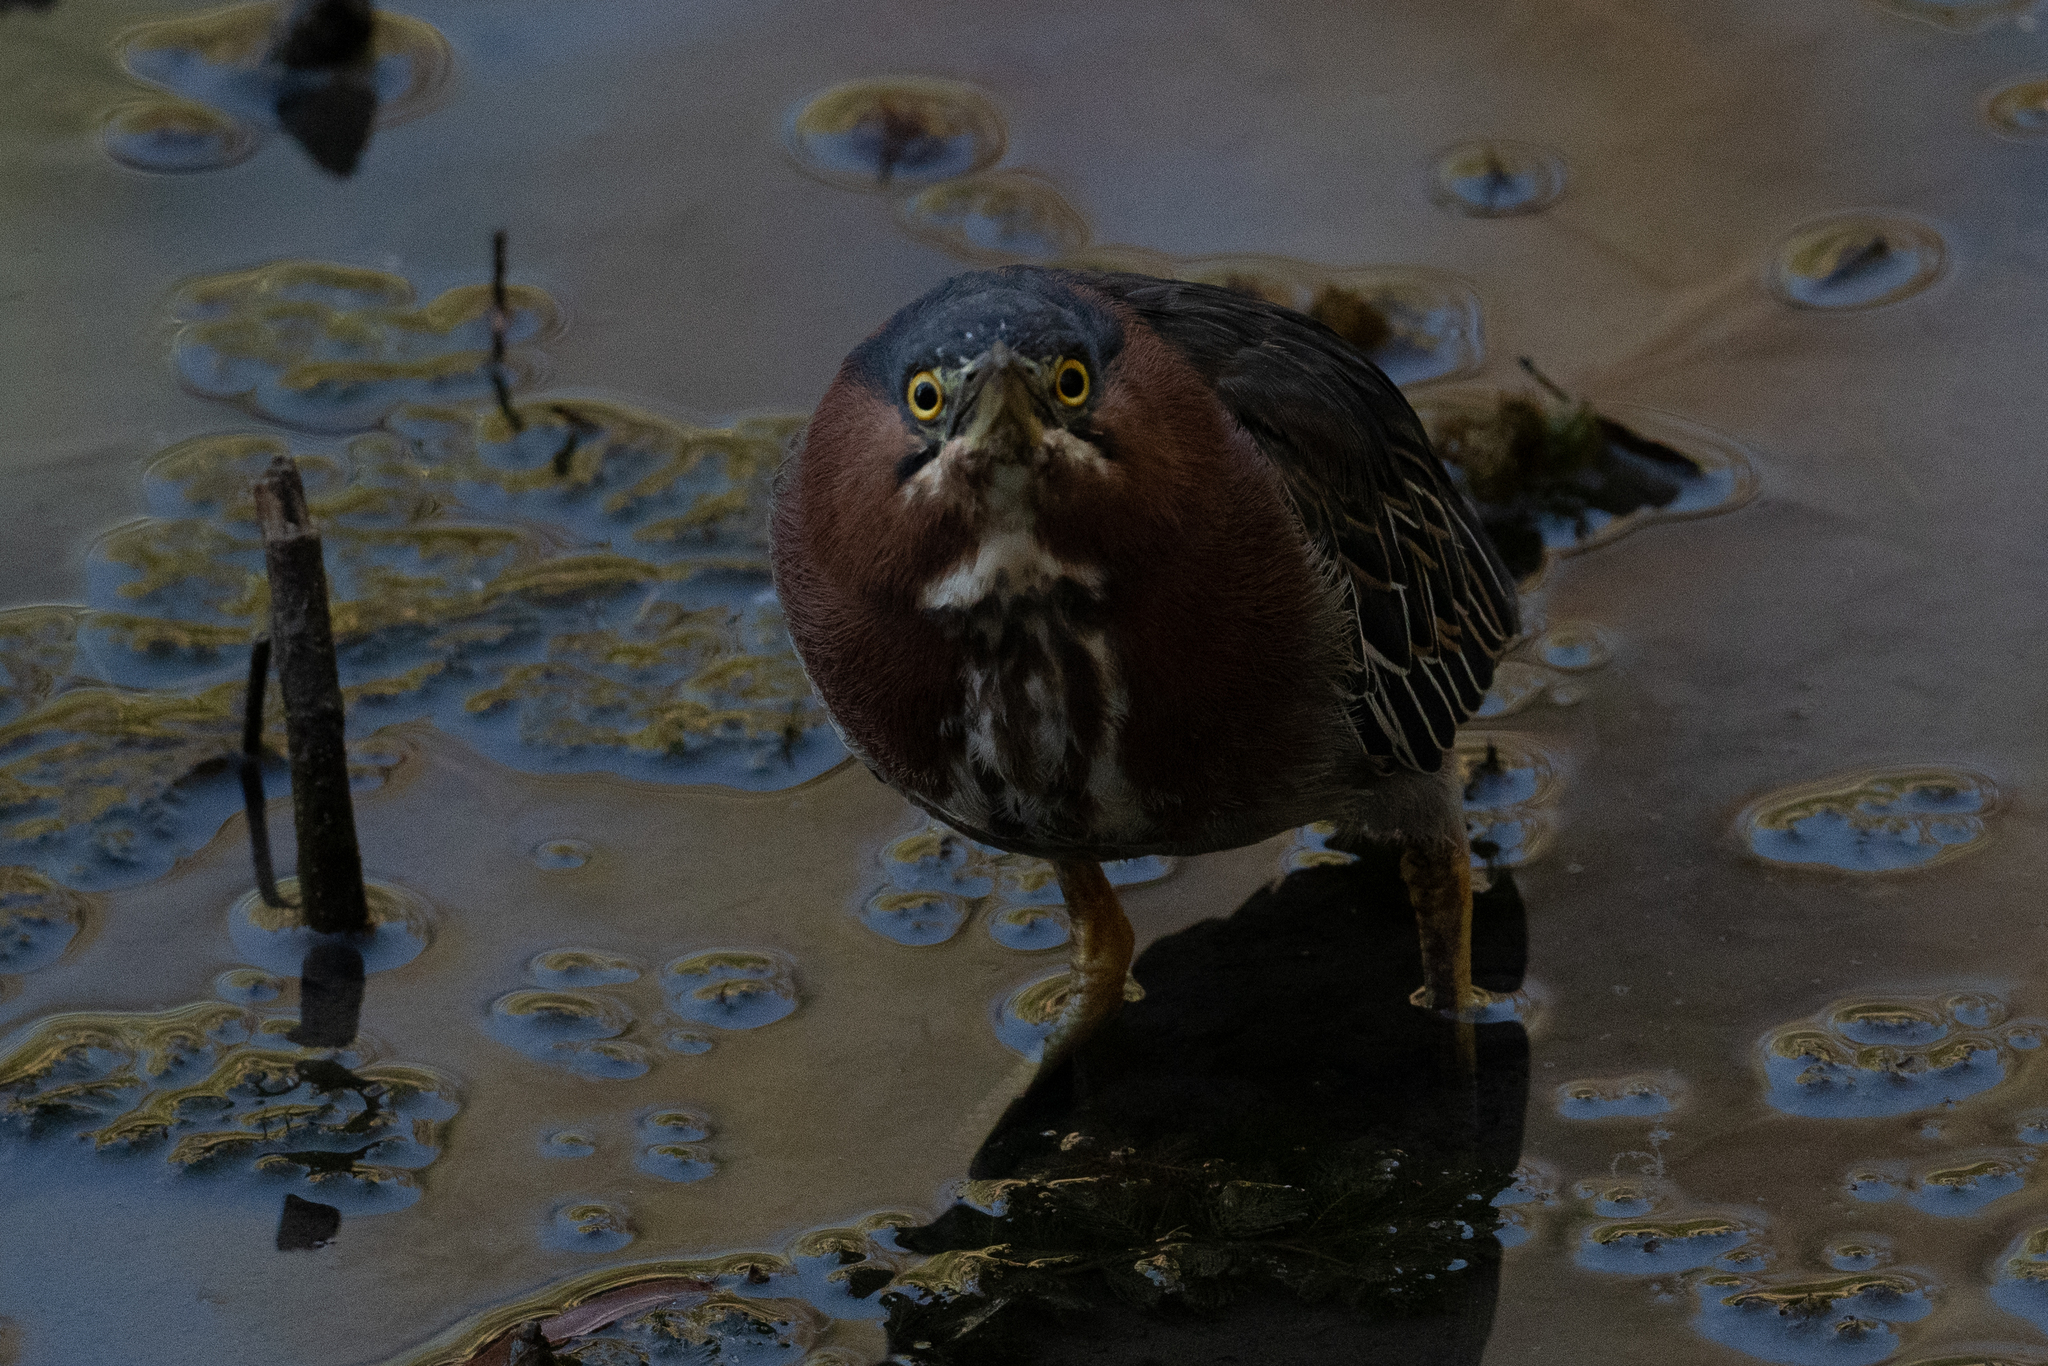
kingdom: Animalia
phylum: Chordata
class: Aves
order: Pelecaniformes
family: Ardeidae
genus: Butorides
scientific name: Butorides virescens
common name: Green heron
